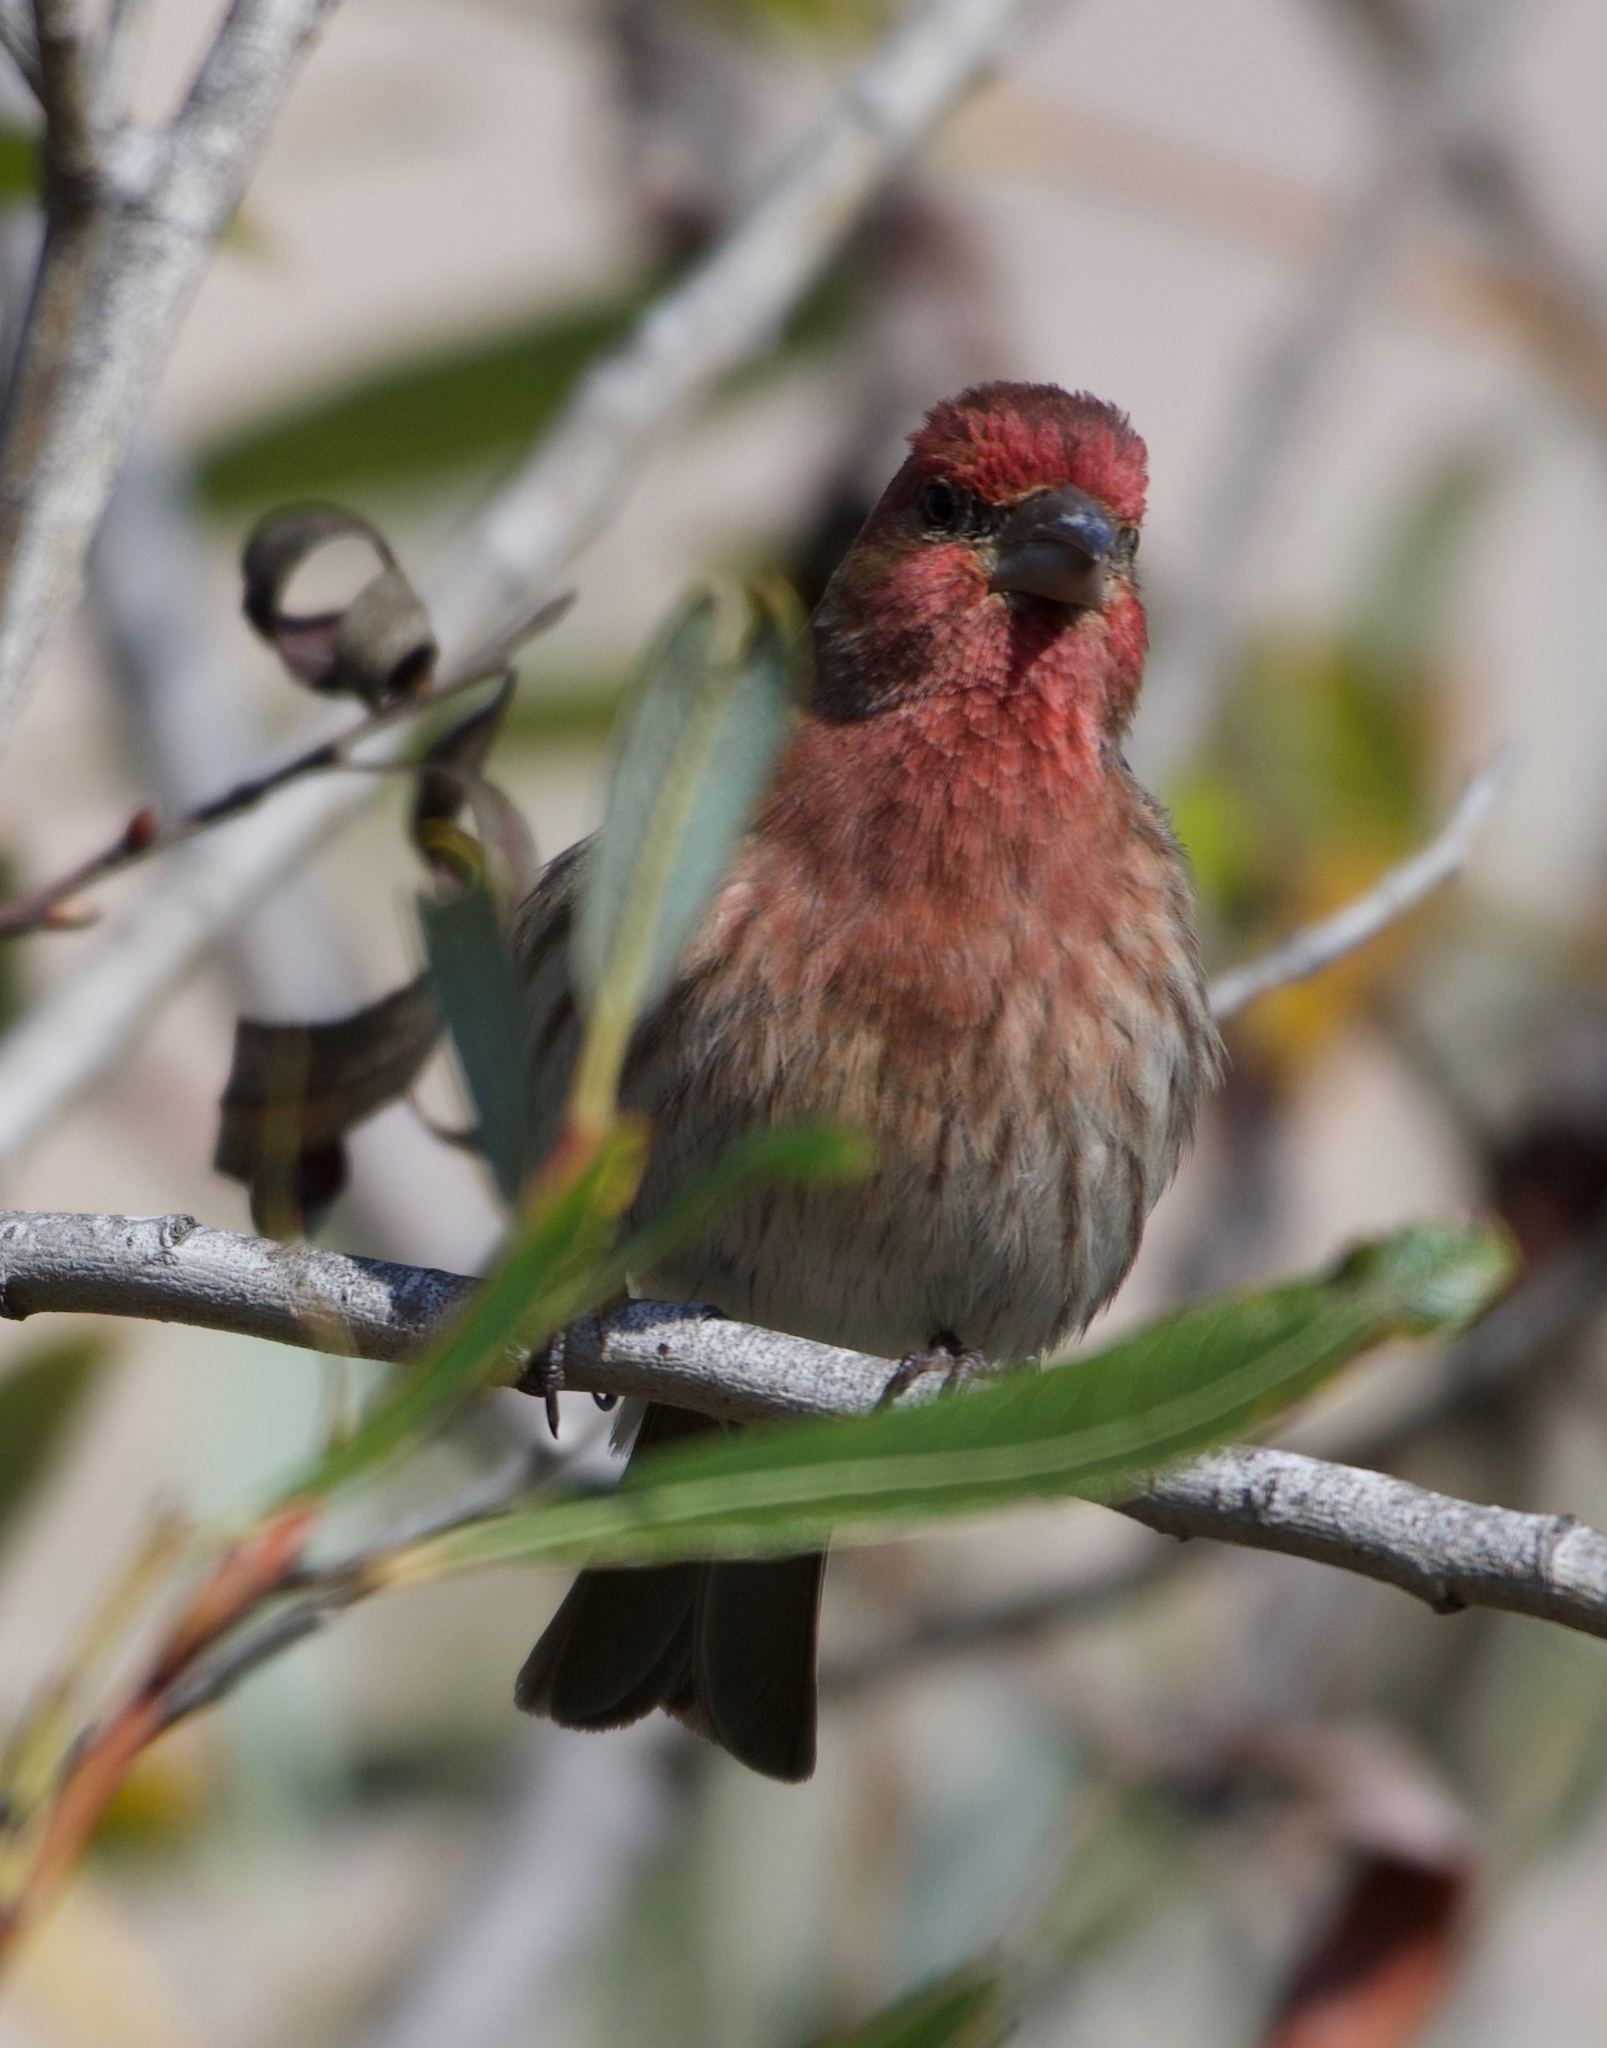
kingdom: Animalia
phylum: Chordata
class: Aves
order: Passeriformes
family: Fringillidae
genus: Haemorhous
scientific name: Haemorhous mexicanus
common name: House finch
